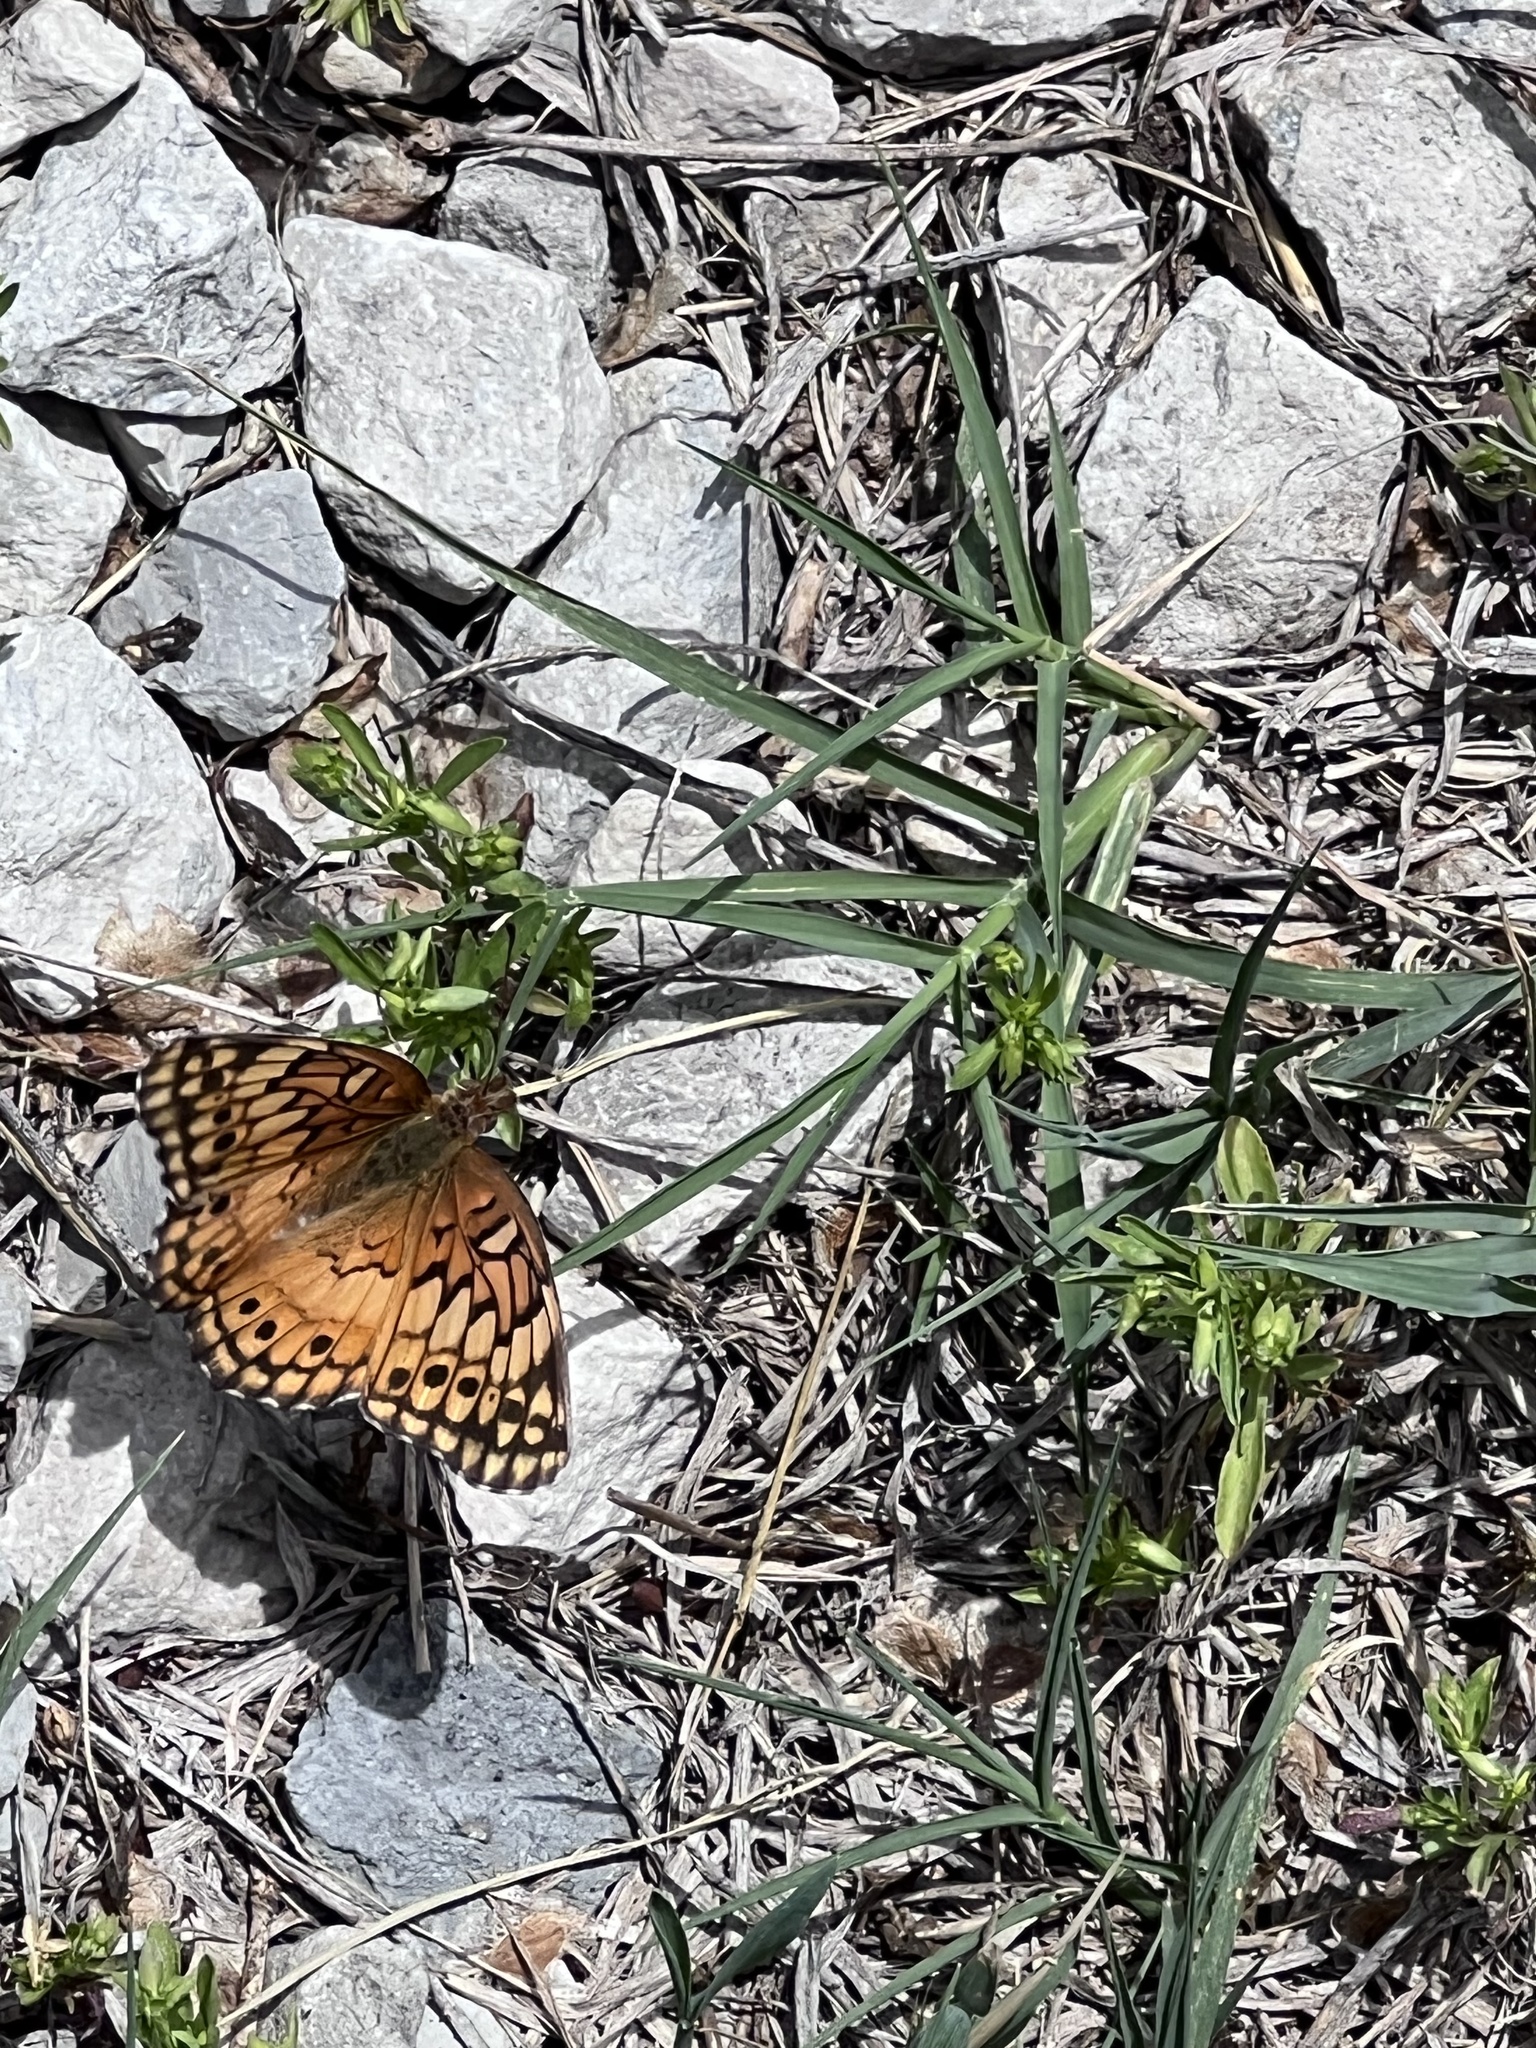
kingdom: Animalia
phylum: Arthropoda
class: Insecta
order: Lepidoptera
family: Nymphalidae
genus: Euptoieta
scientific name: Euptoieta claudia
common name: Variegated fritillary
